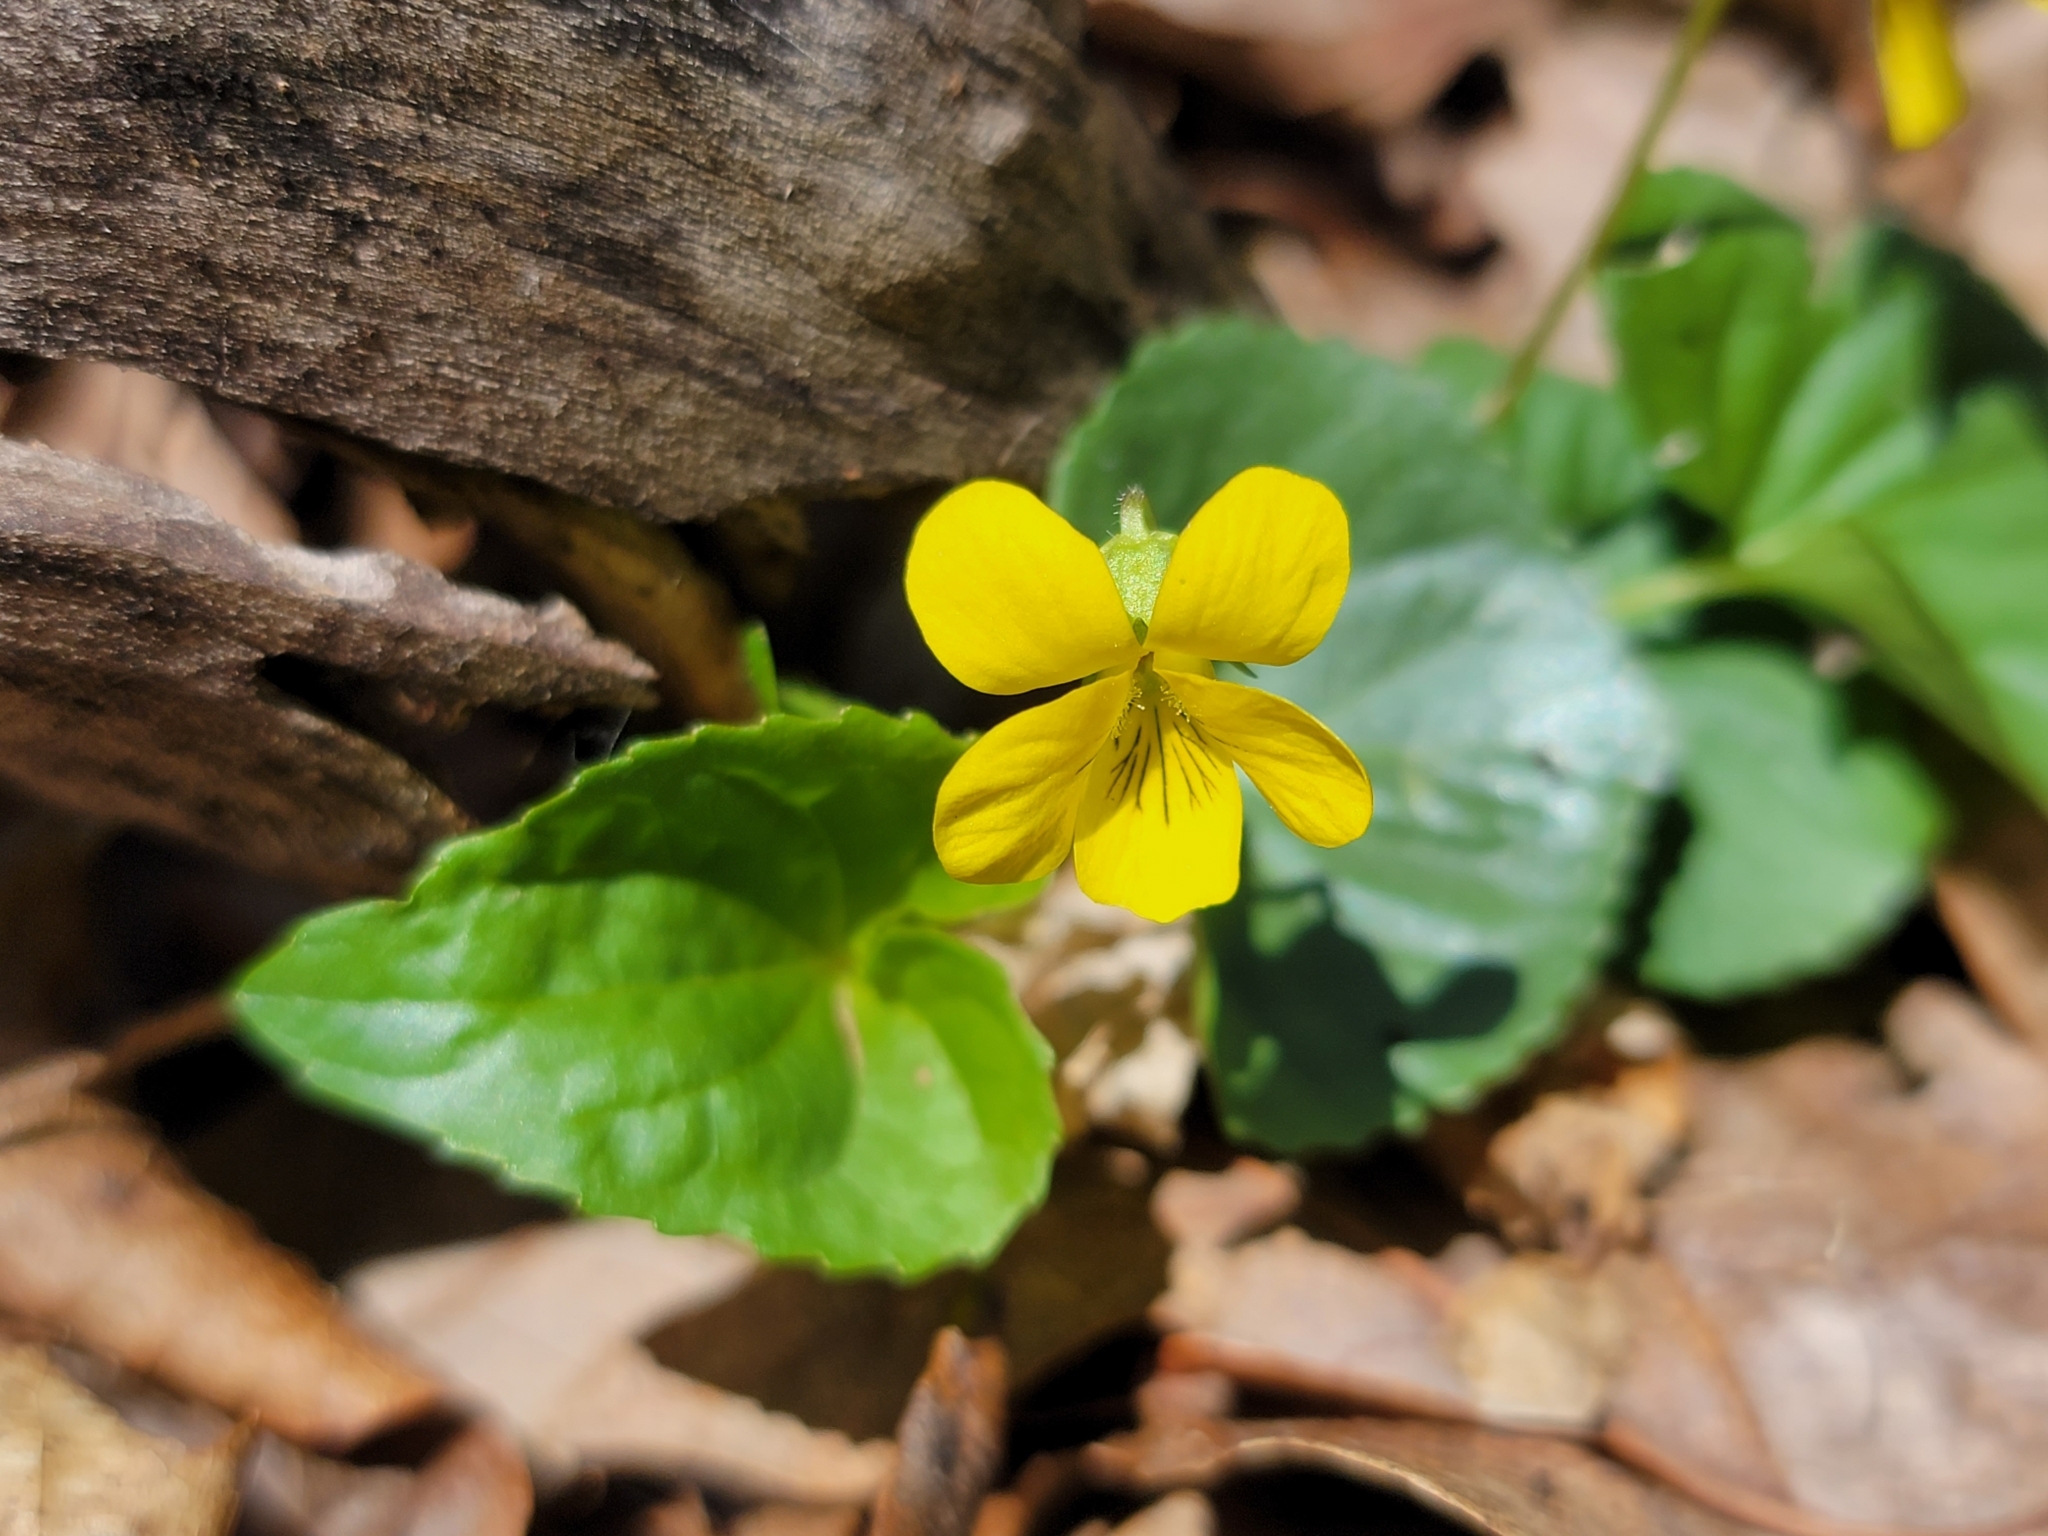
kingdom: Plantae
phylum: Tracheophyta
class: Magnoliopsida
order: Malpighiales
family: Violaceae
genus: Viola
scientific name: Viola eriocarpa
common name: Smooth yellow violet
